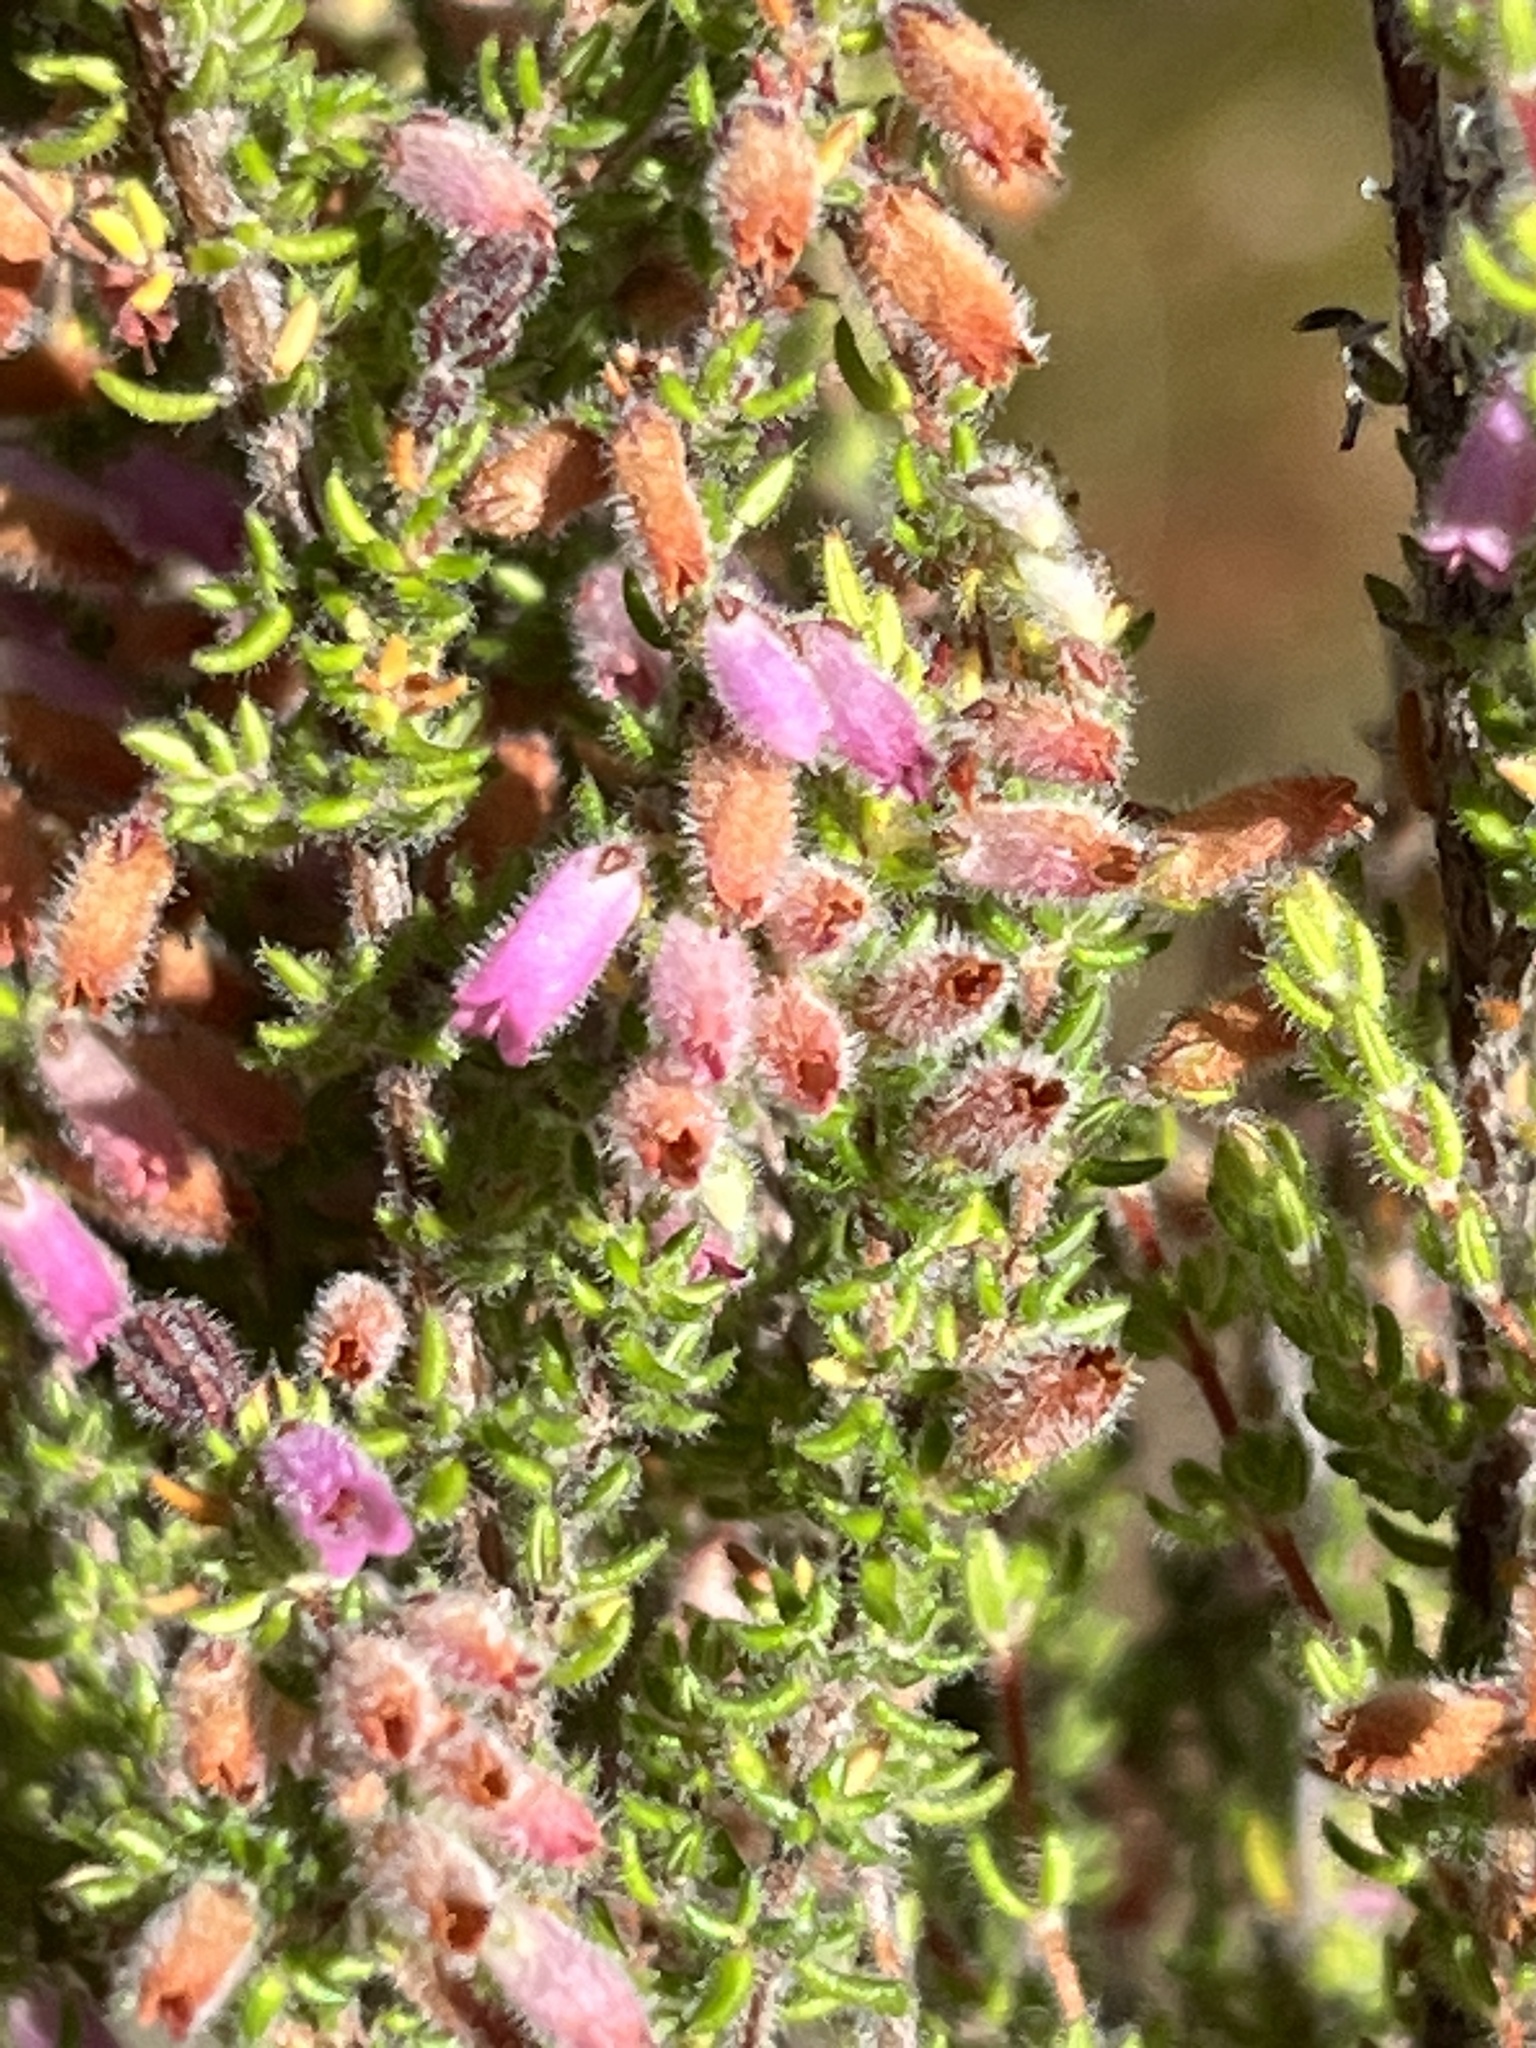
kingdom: Plantae
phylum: Tracheophyta
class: Magnoliopsida
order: Ericales
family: Ericaceae
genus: Erica
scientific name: Erica garciae
